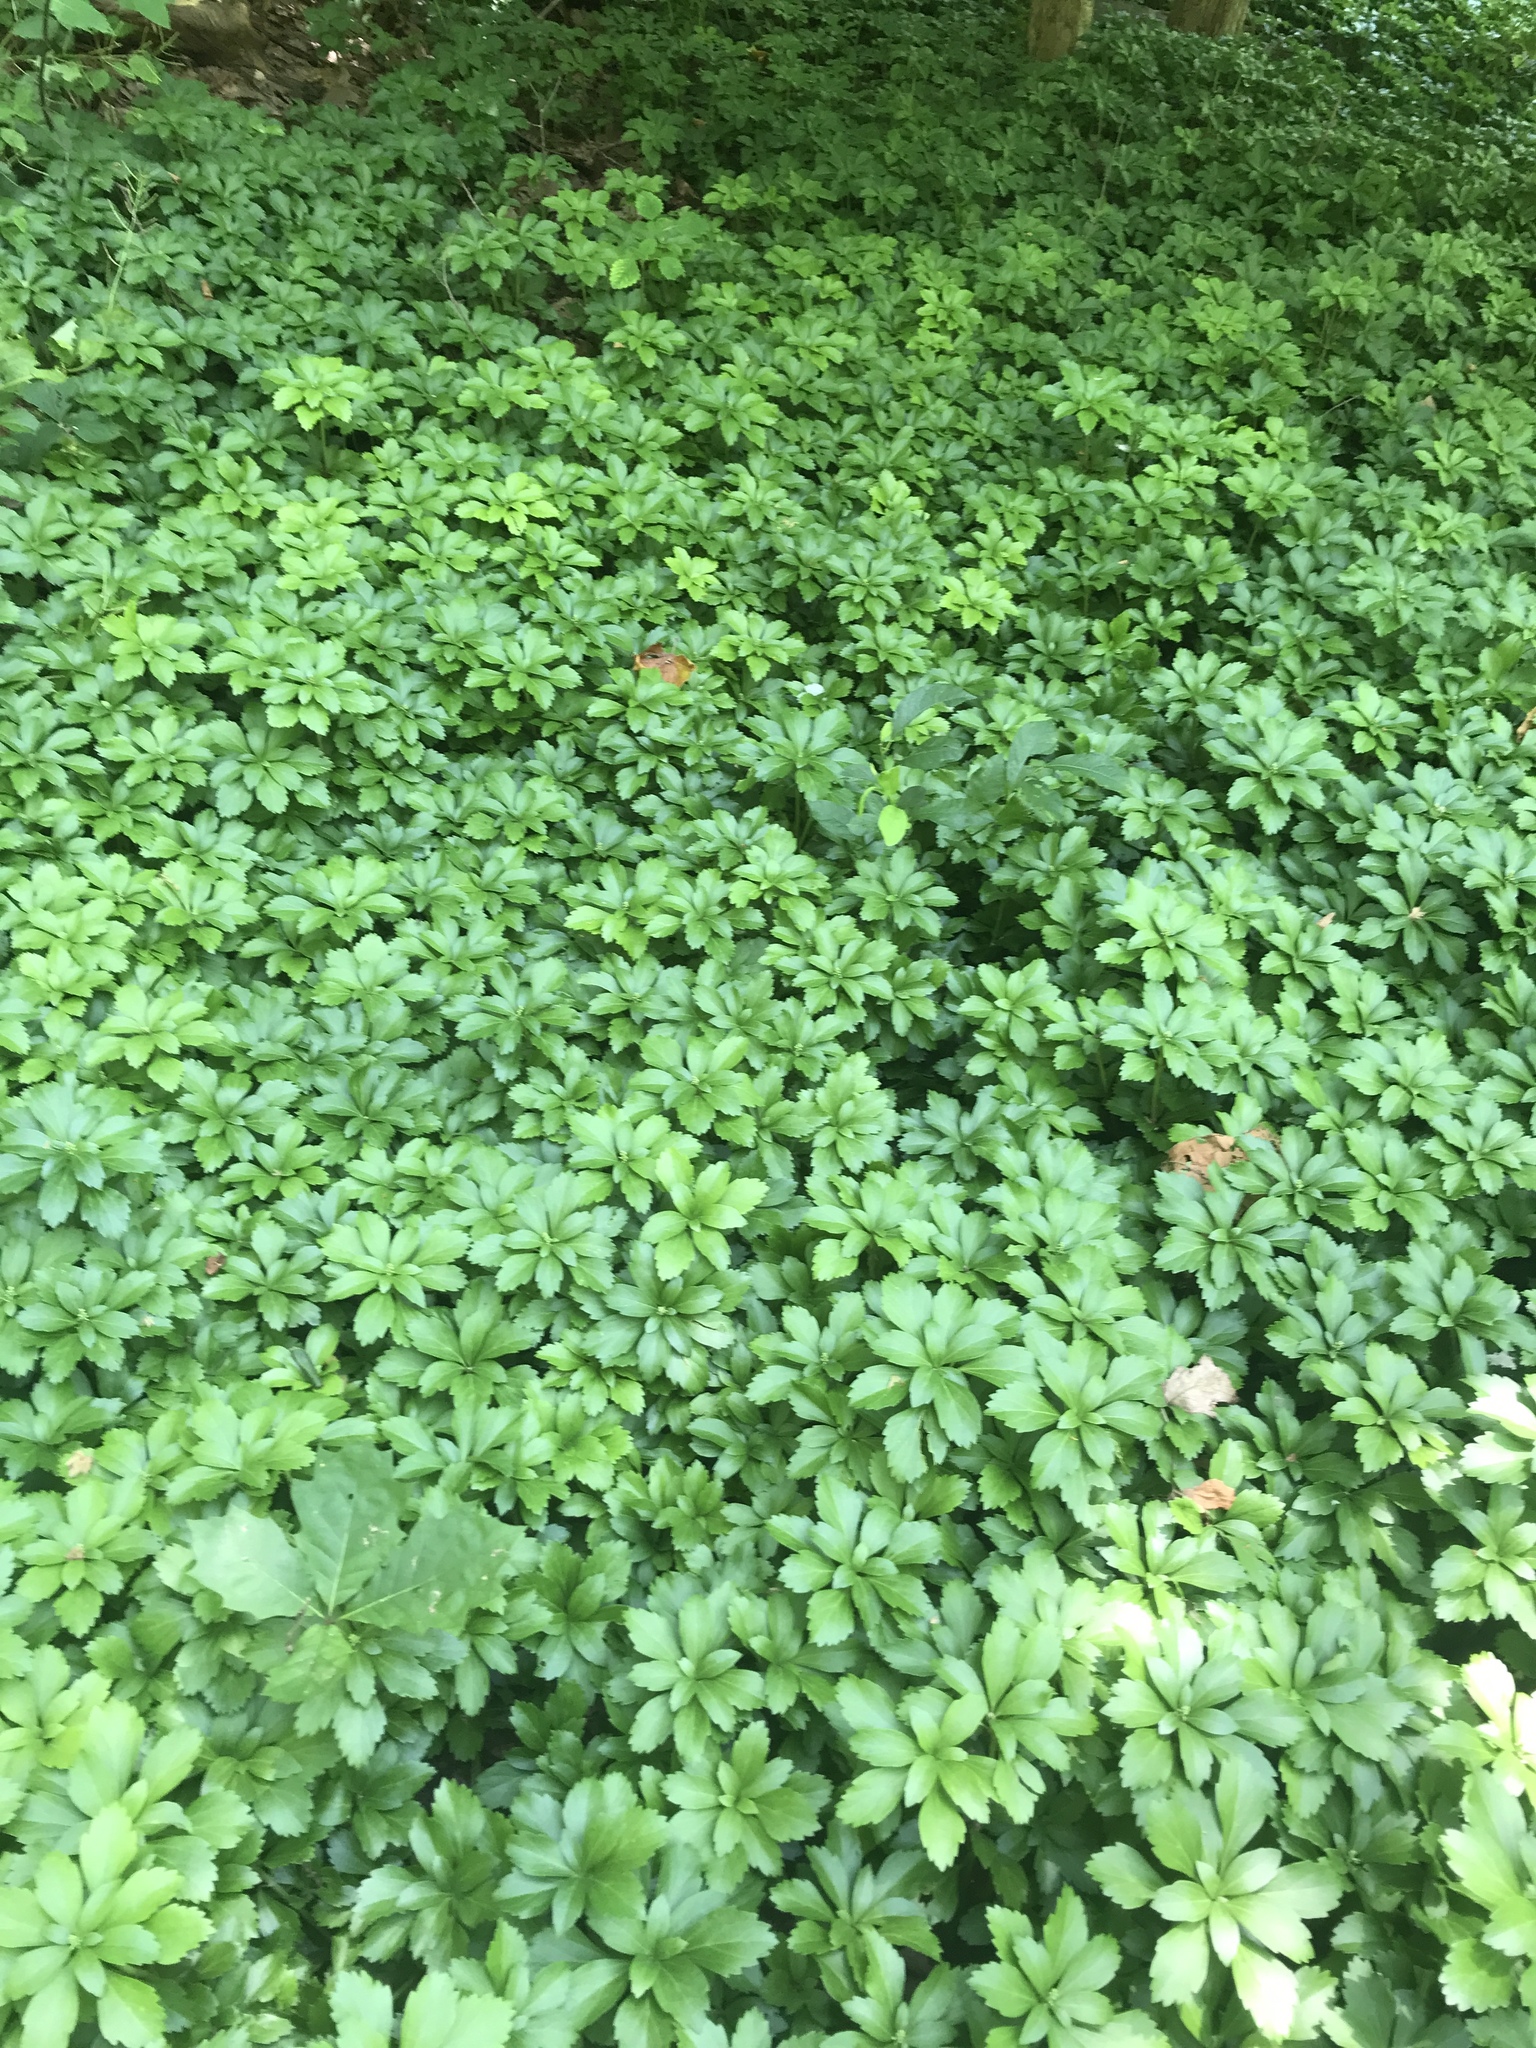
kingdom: Plantae
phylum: Tracheophyta
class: Magnoliopsida
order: Buxales
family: Buxaceae
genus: Pachysandra
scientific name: Pachysandra terminalis
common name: Japanese pachysandra
